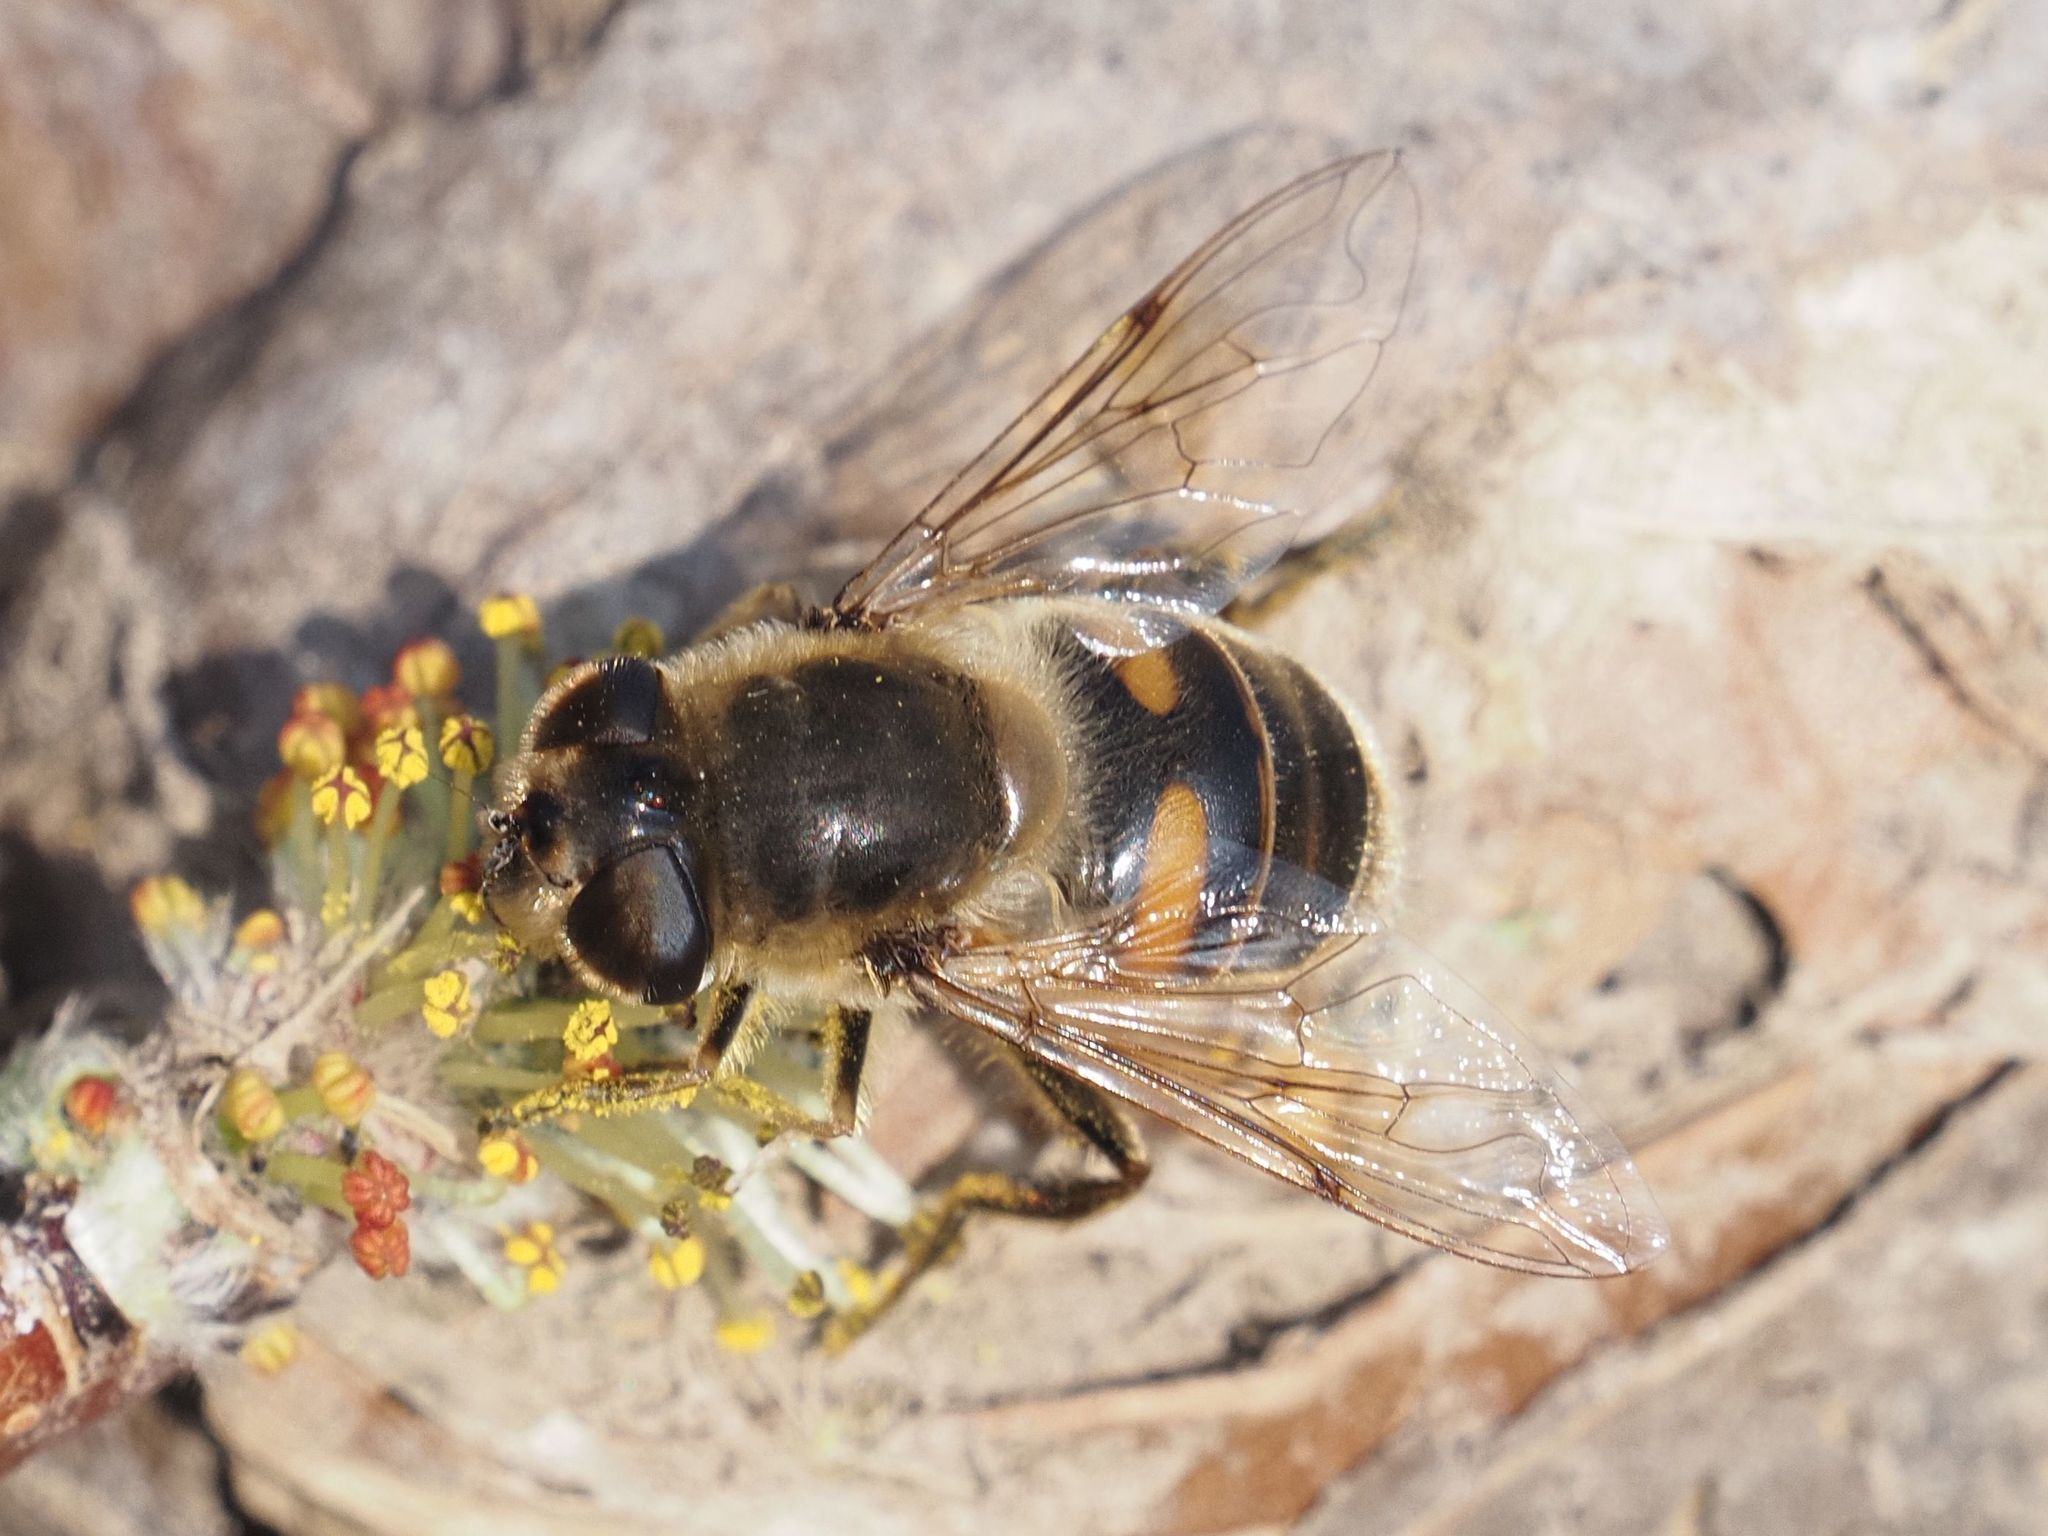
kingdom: Animalia
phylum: Arthropoda
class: Insecta
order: Diptera
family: Syrphidae
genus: Eristalis
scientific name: Eristalis tenax
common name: Drone fly
